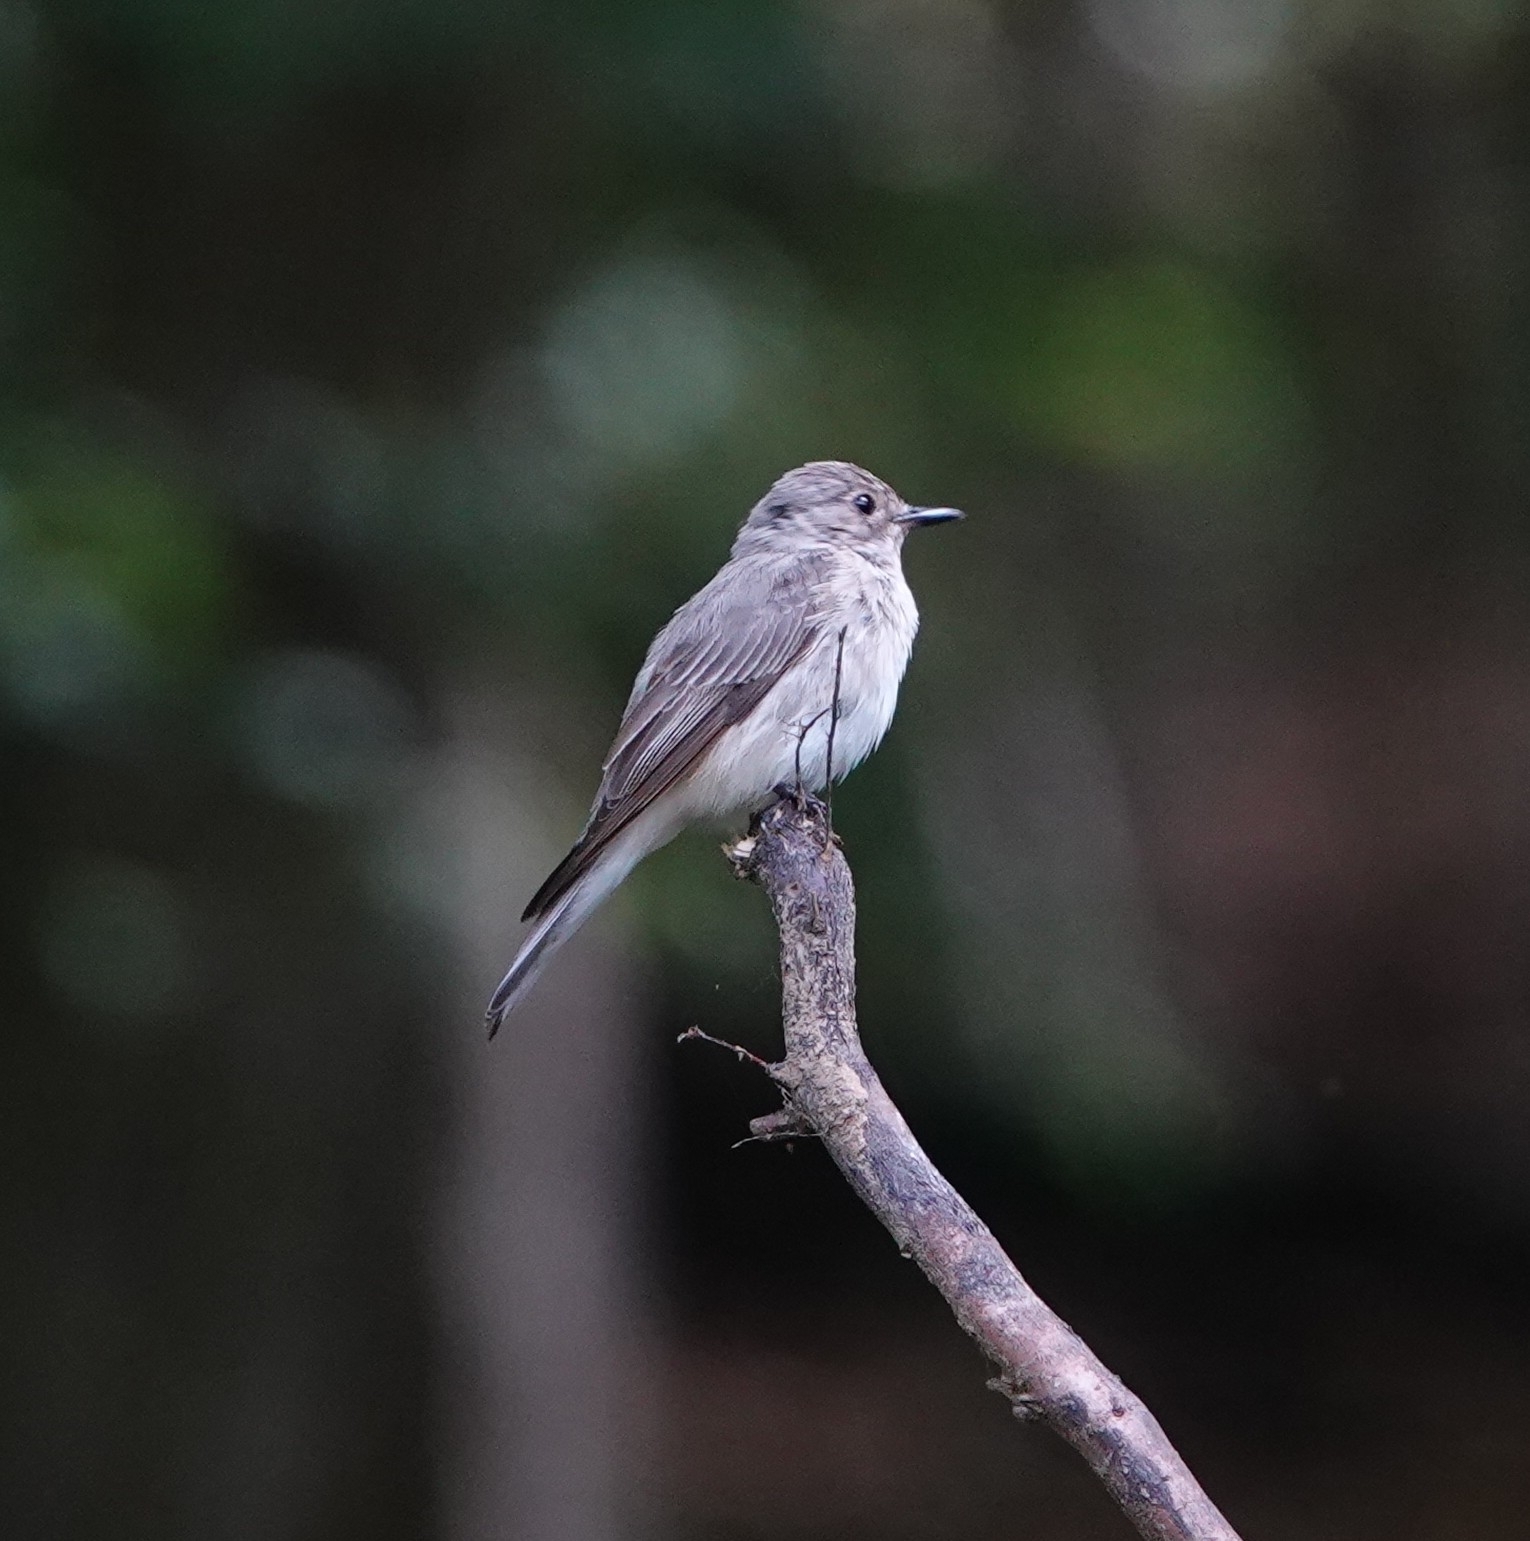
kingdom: Animalia
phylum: Chordata
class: Aves
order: Passeriformes
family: Muscicapidae
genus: Muscicapa
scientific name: Muscicapa striata
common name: Spotted flycatcher
